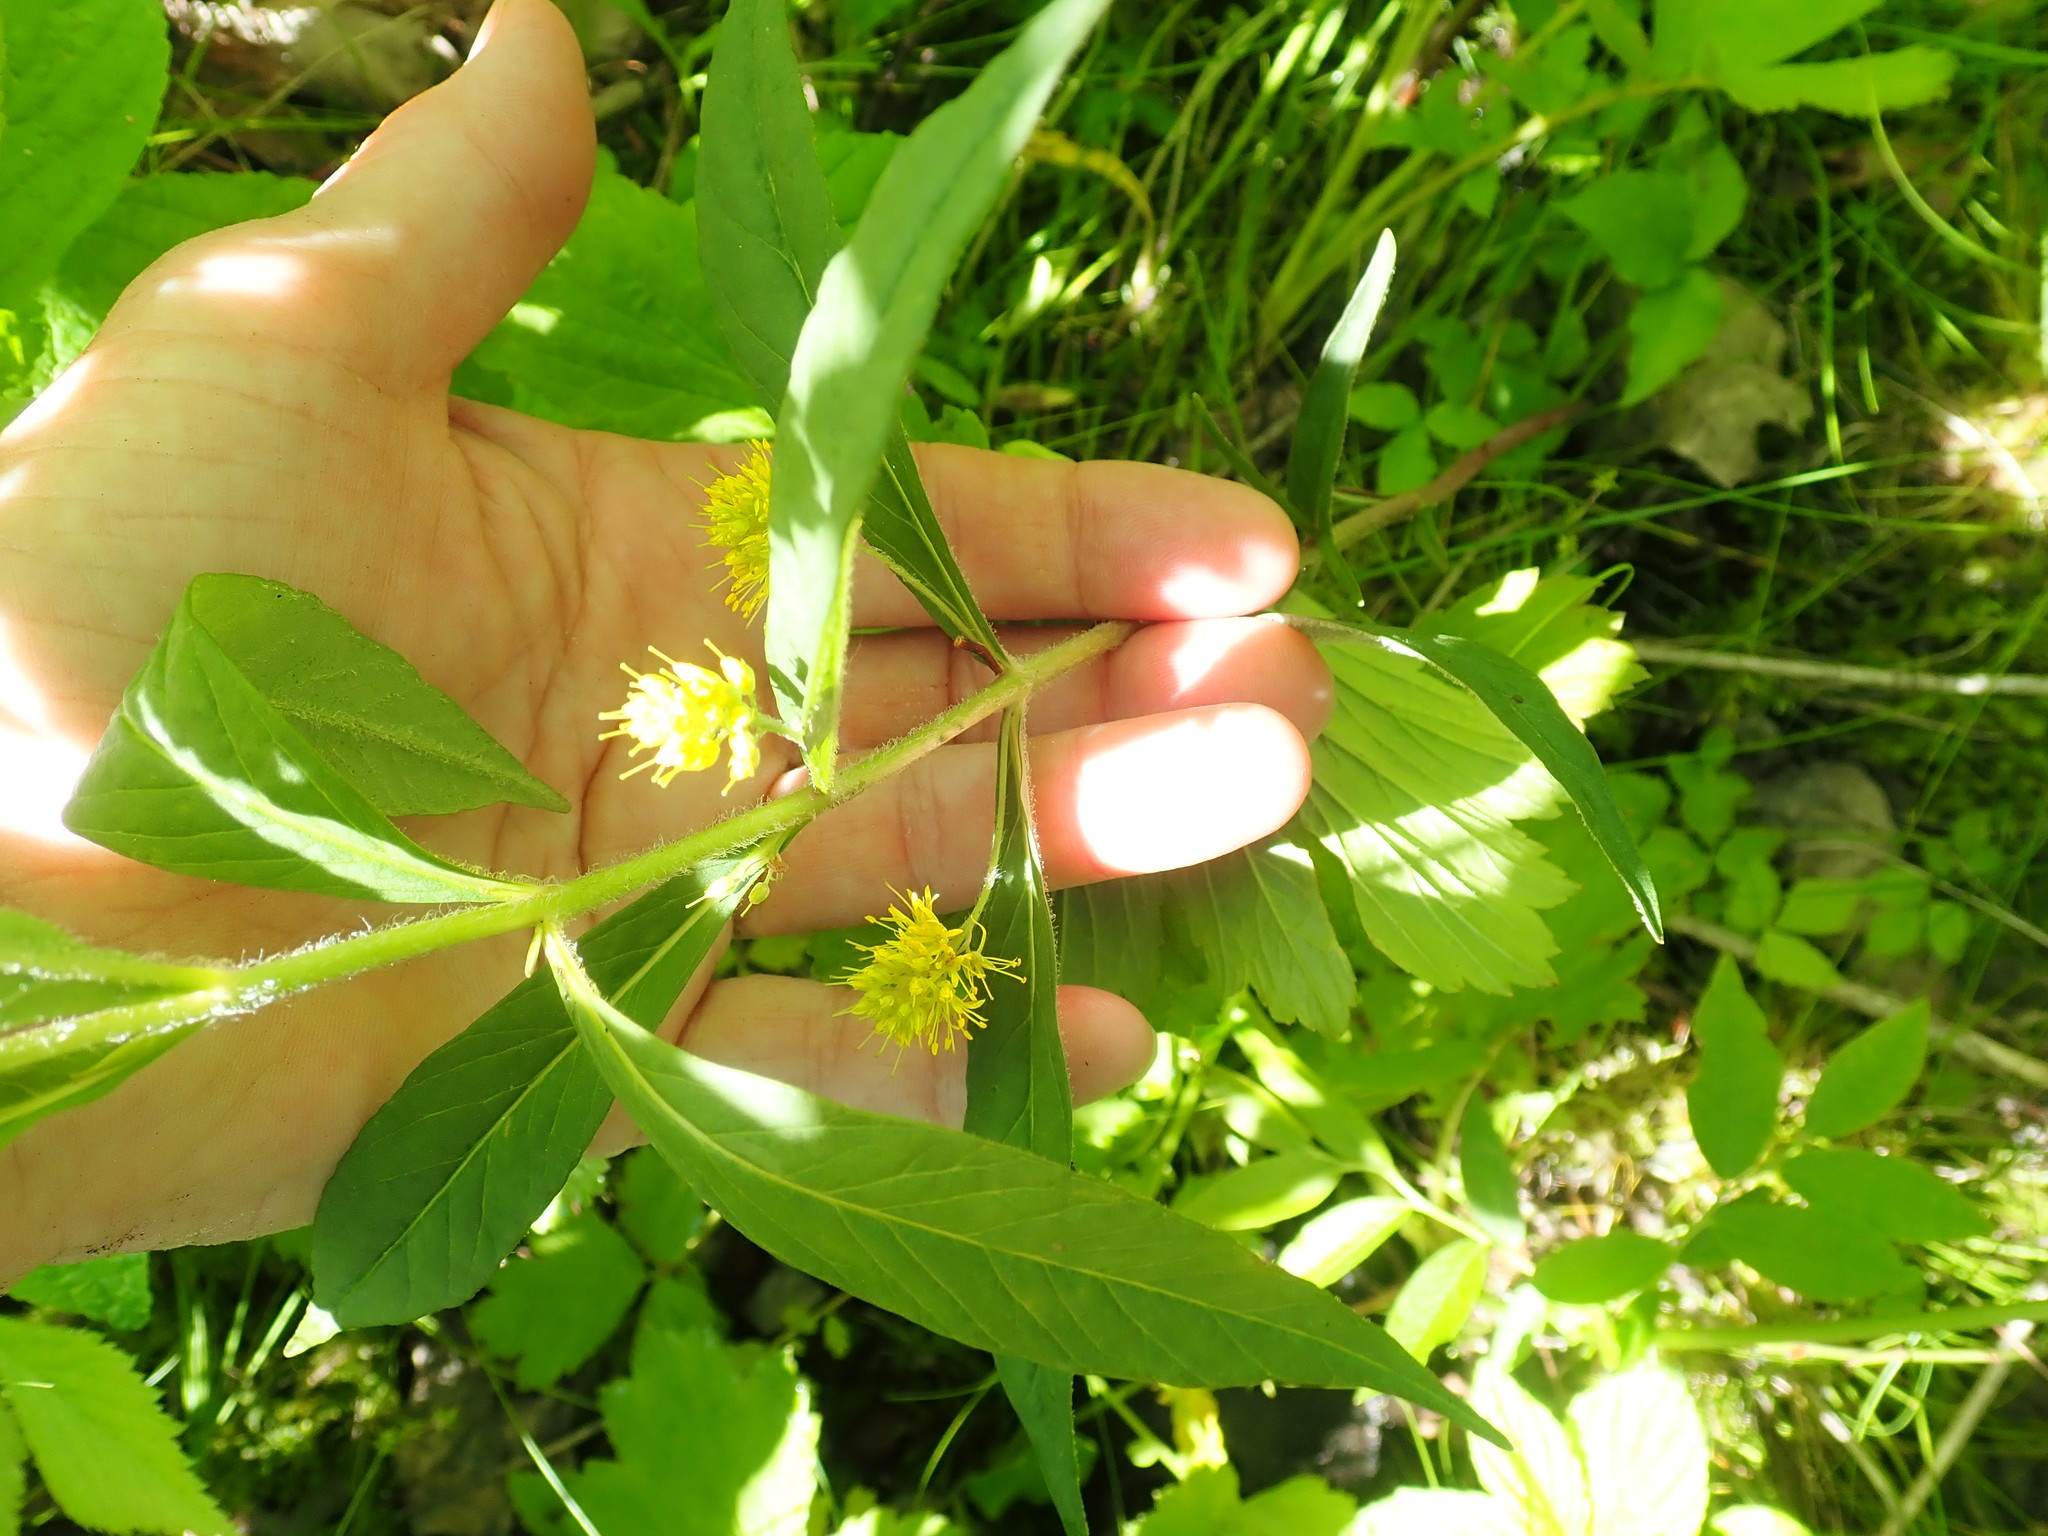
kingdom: Plantae
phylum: Tracheophyta
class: Magnoliopsida
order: Ericales
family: Primulaceae
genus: Lysimachia
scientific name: Lysimachia thyrsiflora
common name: Tufted loosestrife
